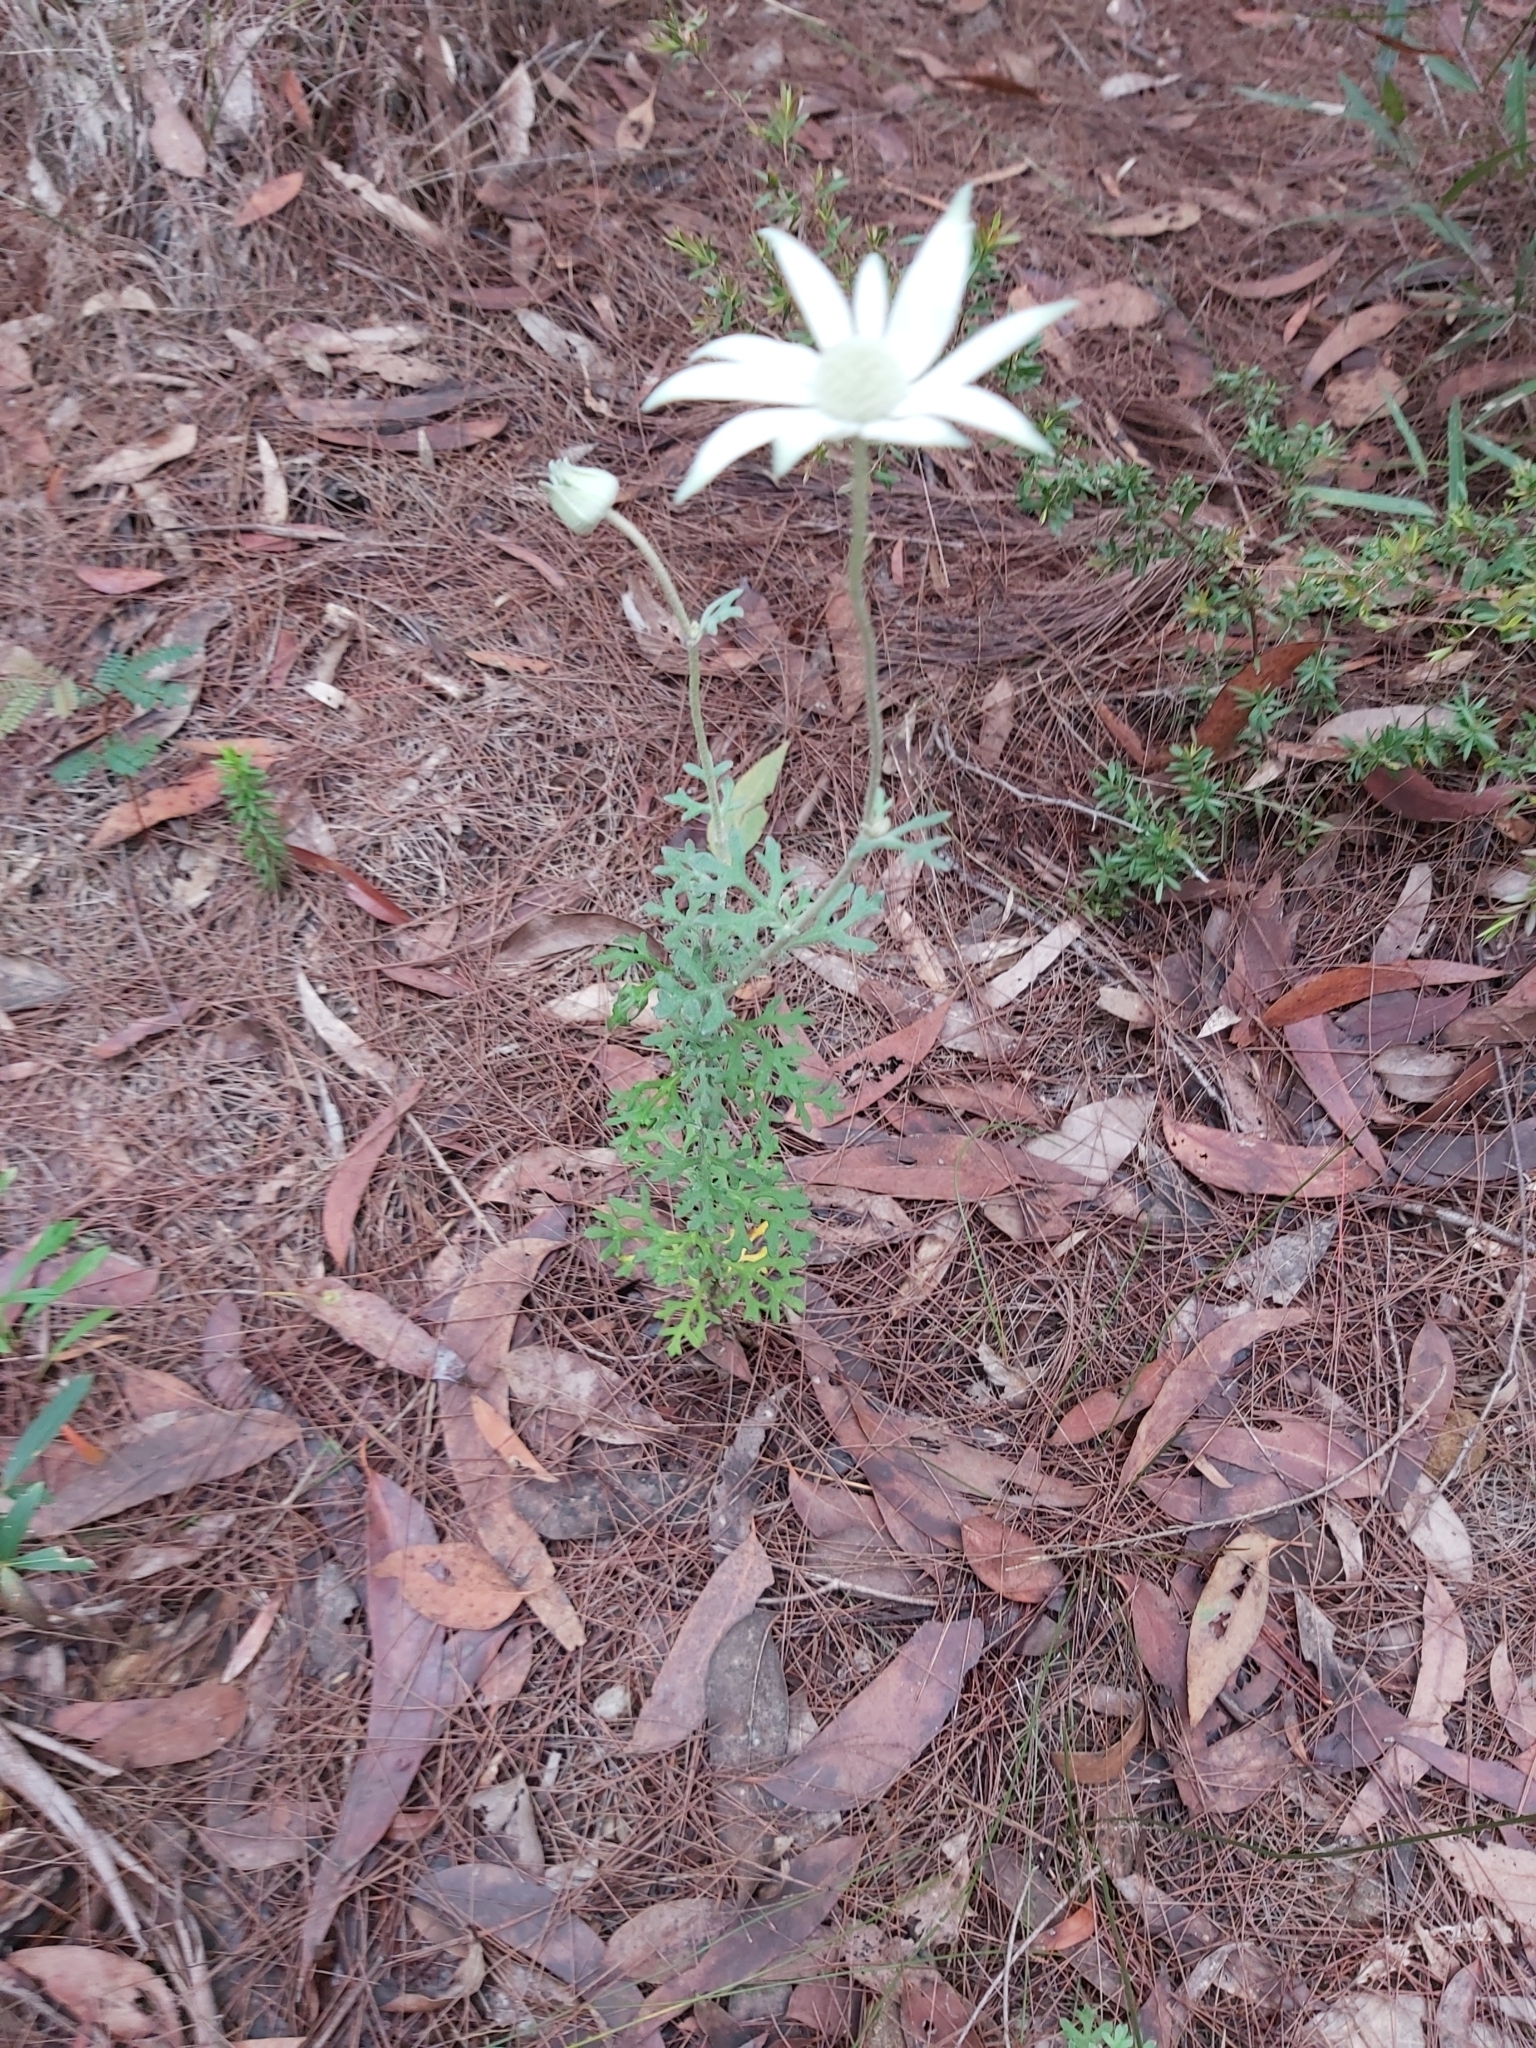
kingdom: Plantae
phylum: Tracheophyta
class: Magnoliopsida
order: Apiales
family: Apiaceae
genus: Actinotus
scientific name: Actinotus helianthi
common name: Flannel-flower
